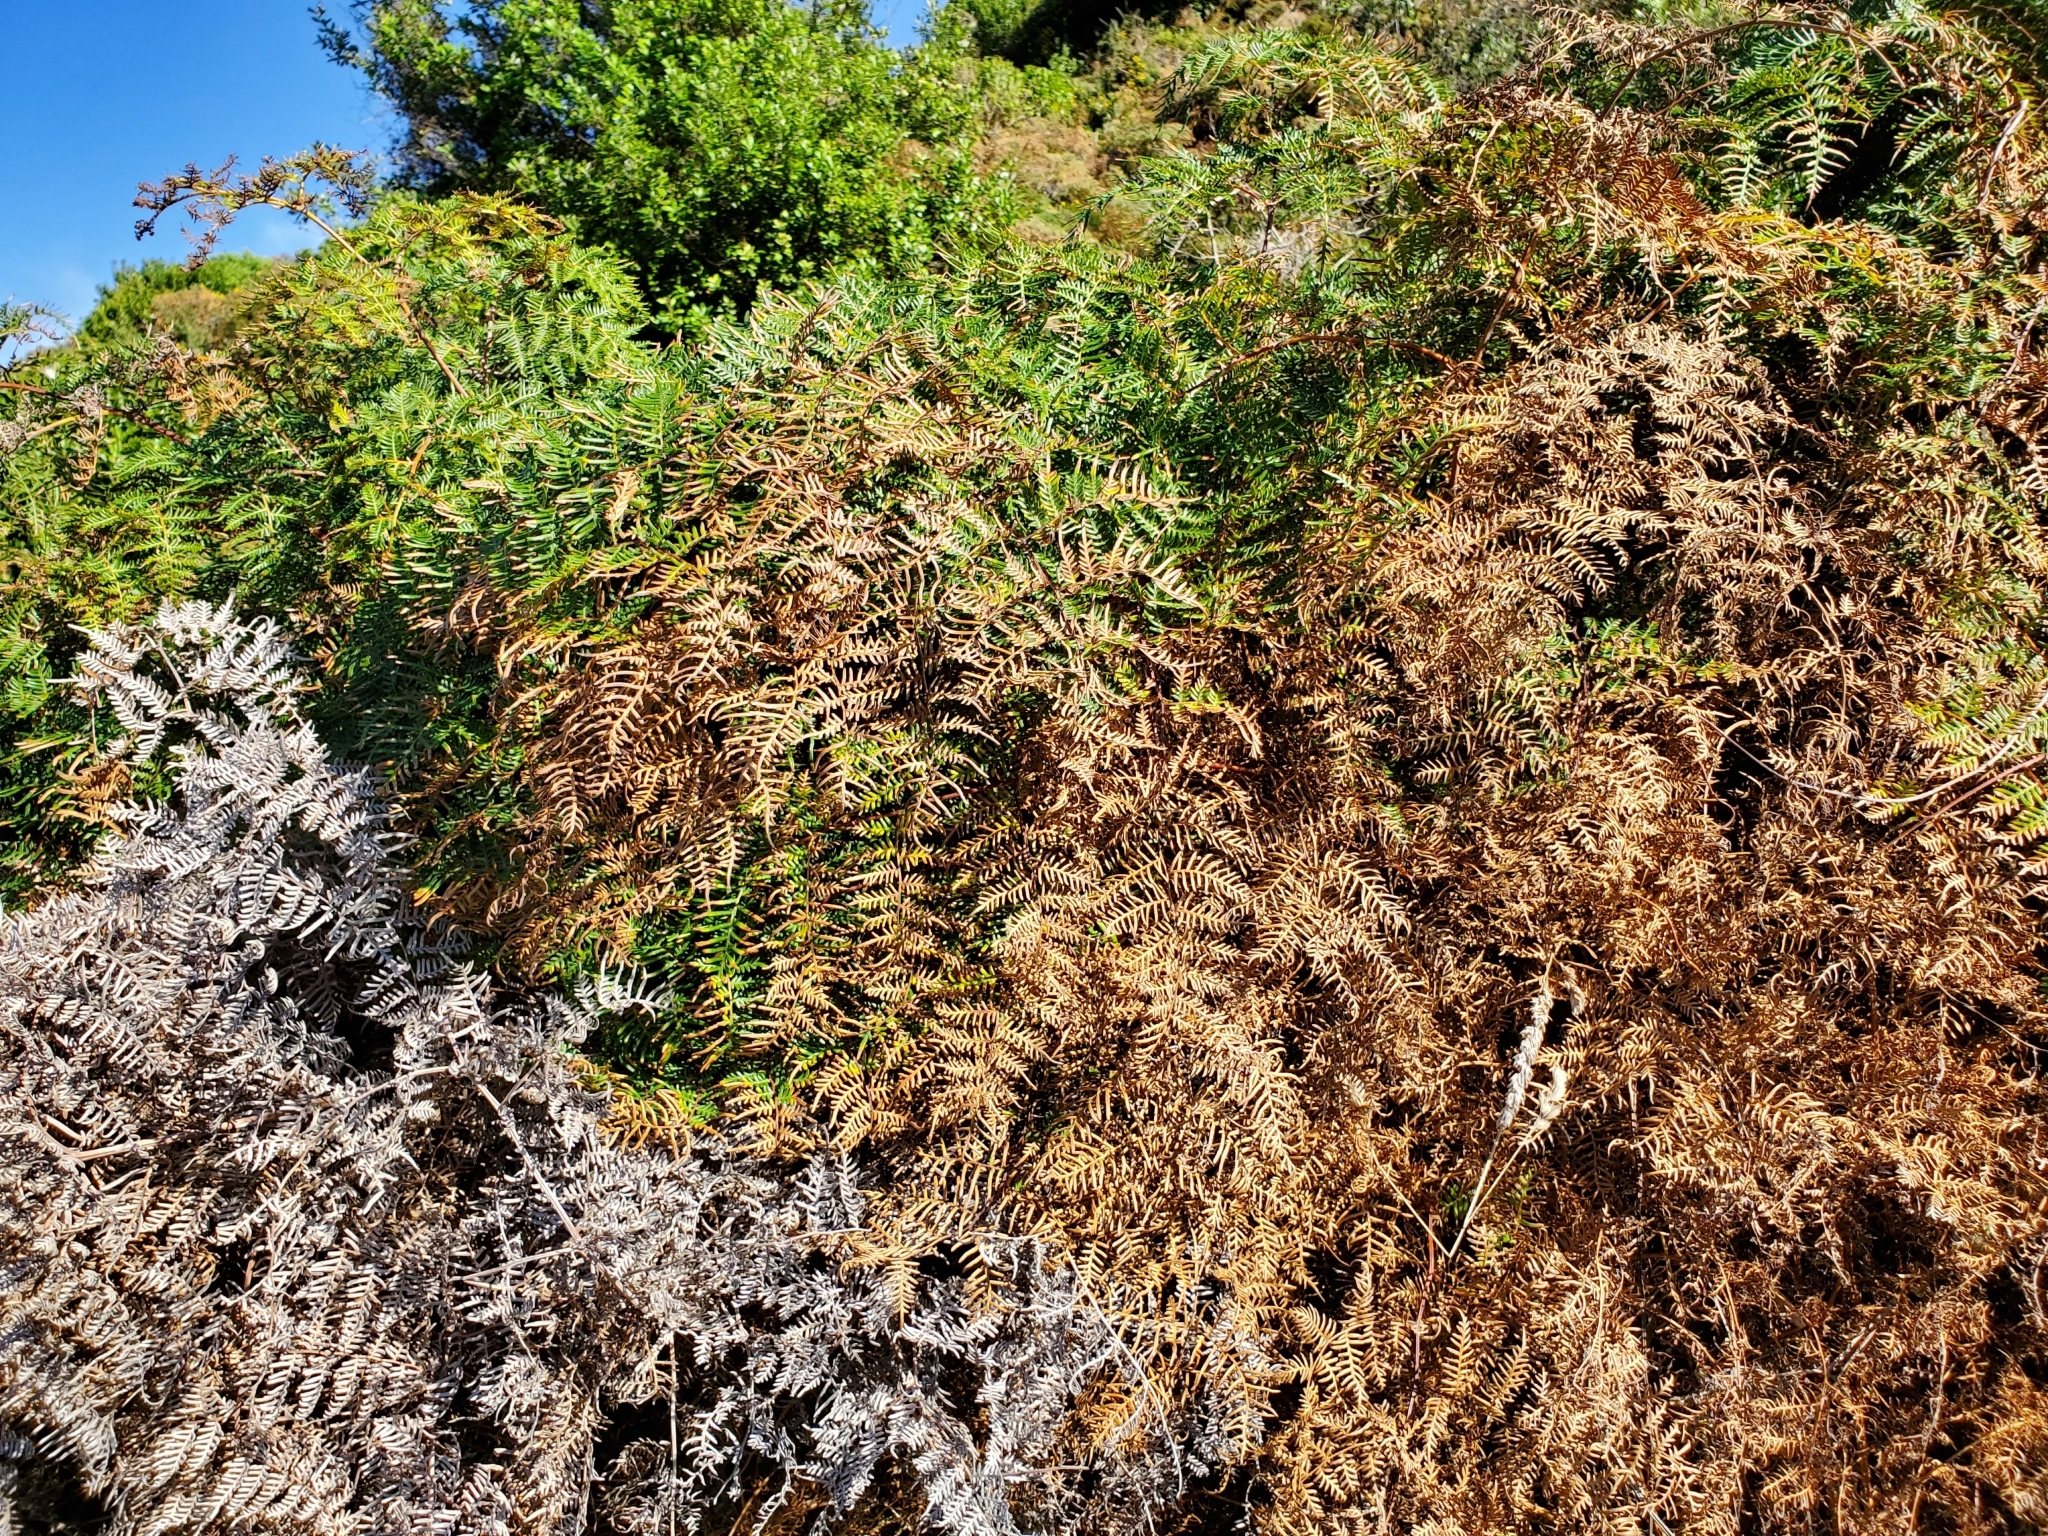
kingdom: Plantae
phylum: Tracheophyta
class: Polypodiopsida
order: Polypodiales
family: Dennstaedtiaceae
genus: Pteridium
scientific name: Pteridium esculentum
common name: Bracken fern
